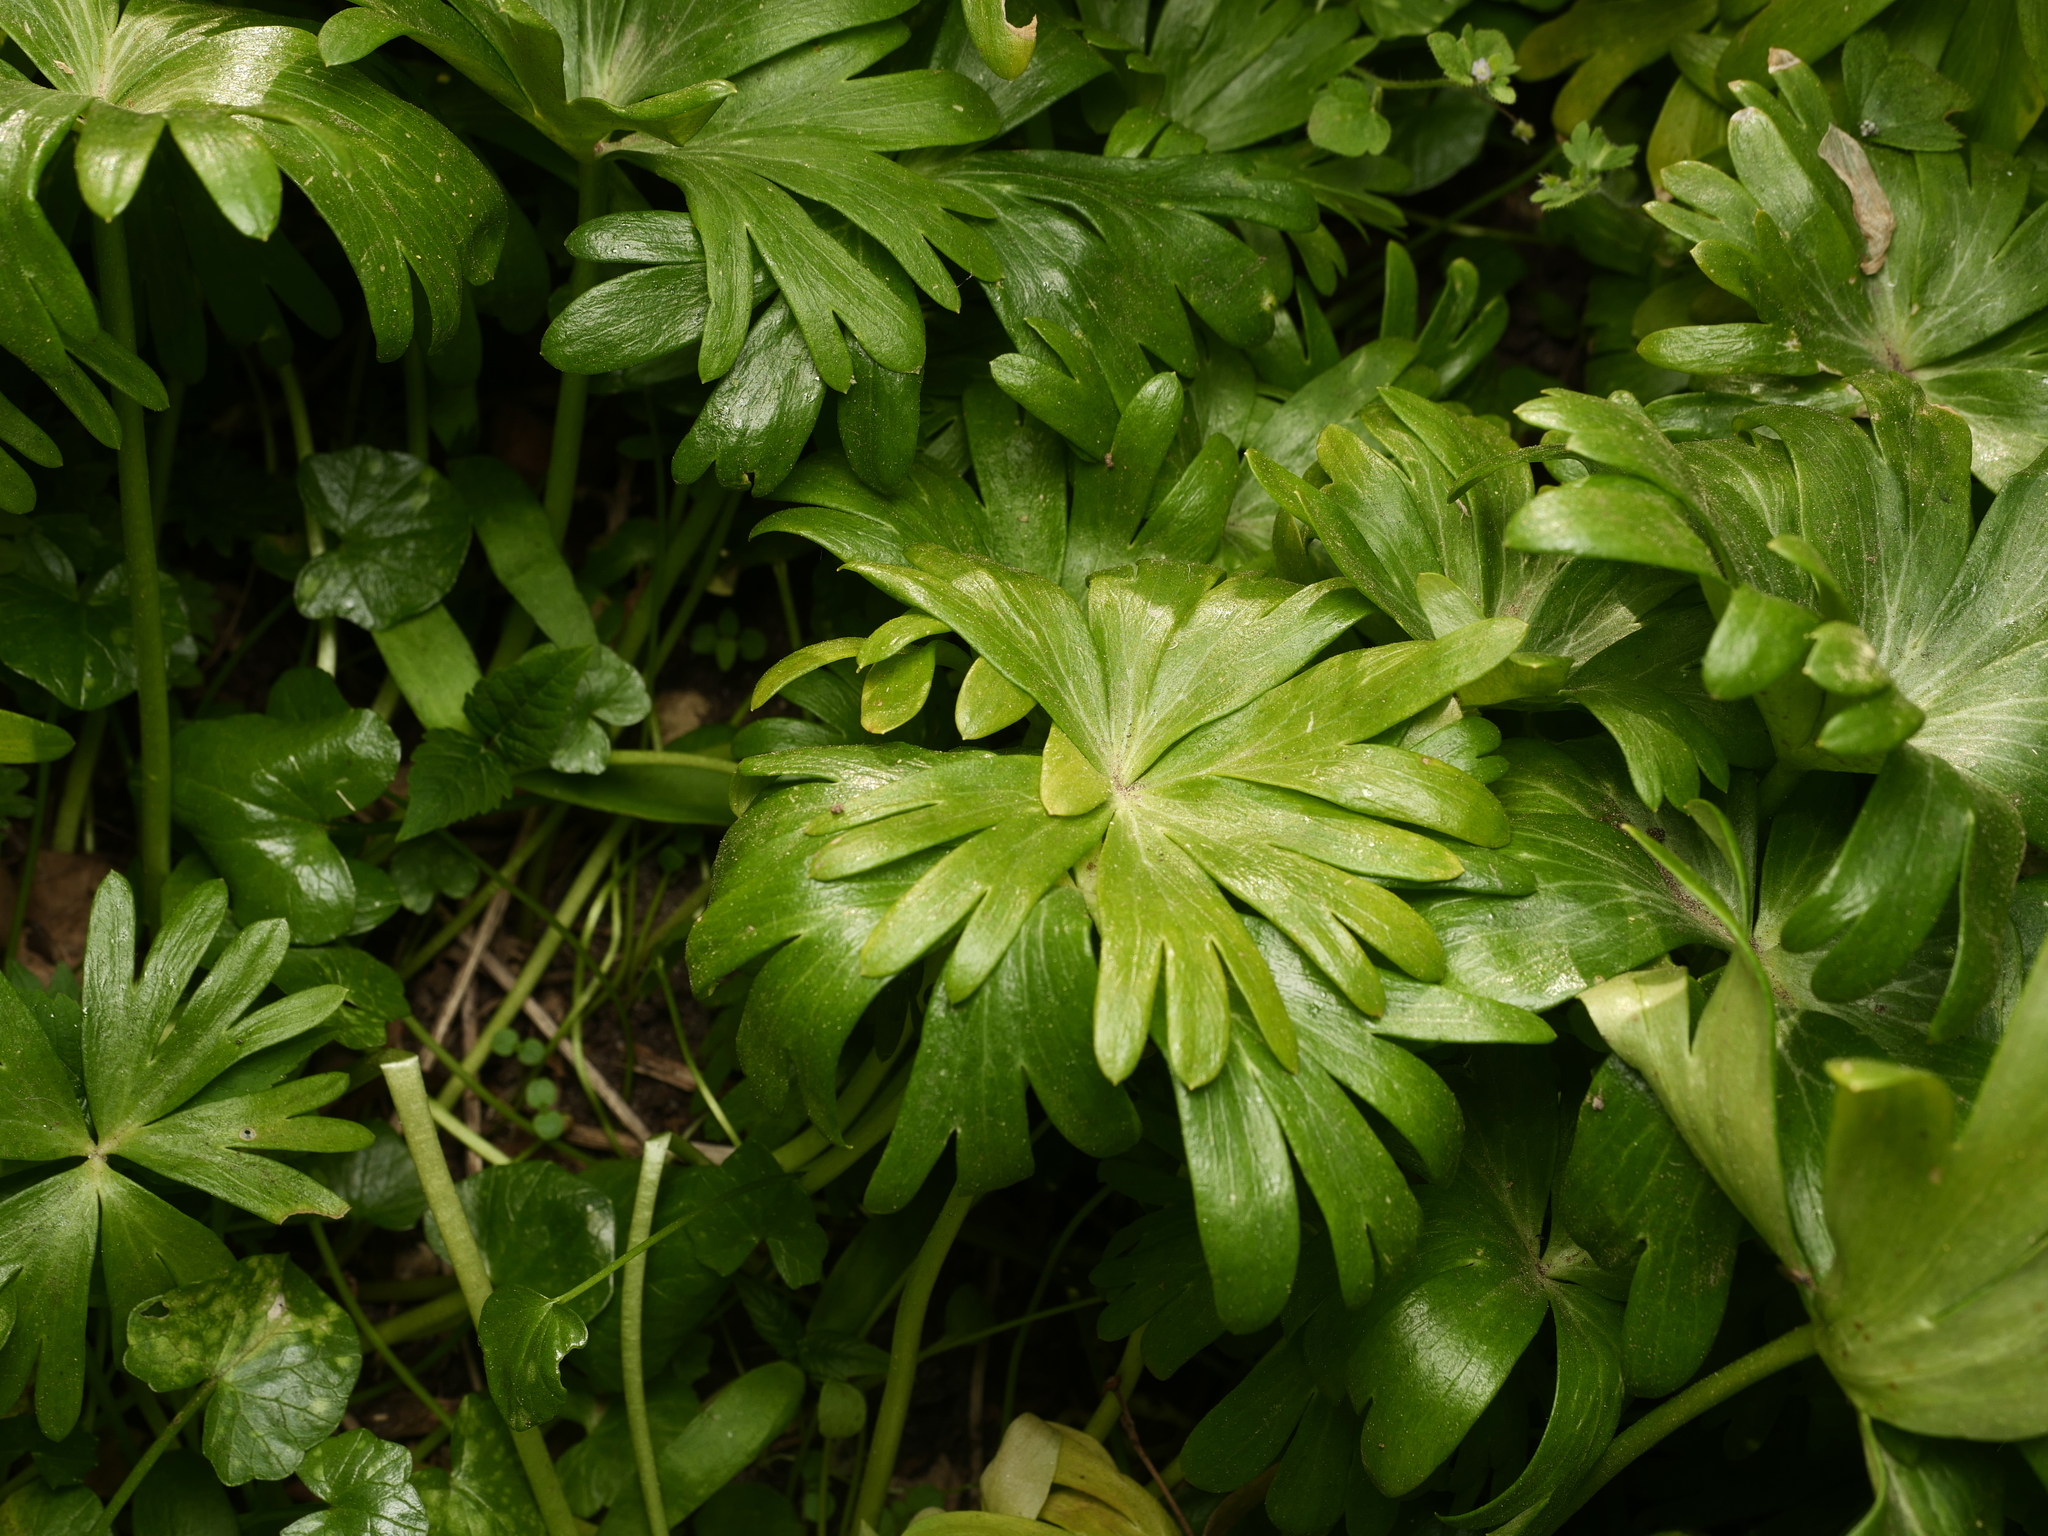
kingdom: Plantae
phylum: Tracheophyta
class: Magnoliopsida
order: Ranunculales
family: Ranunculaceae
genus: Eranthis
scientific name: Eranthis hyemalis
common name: Winter aconite
